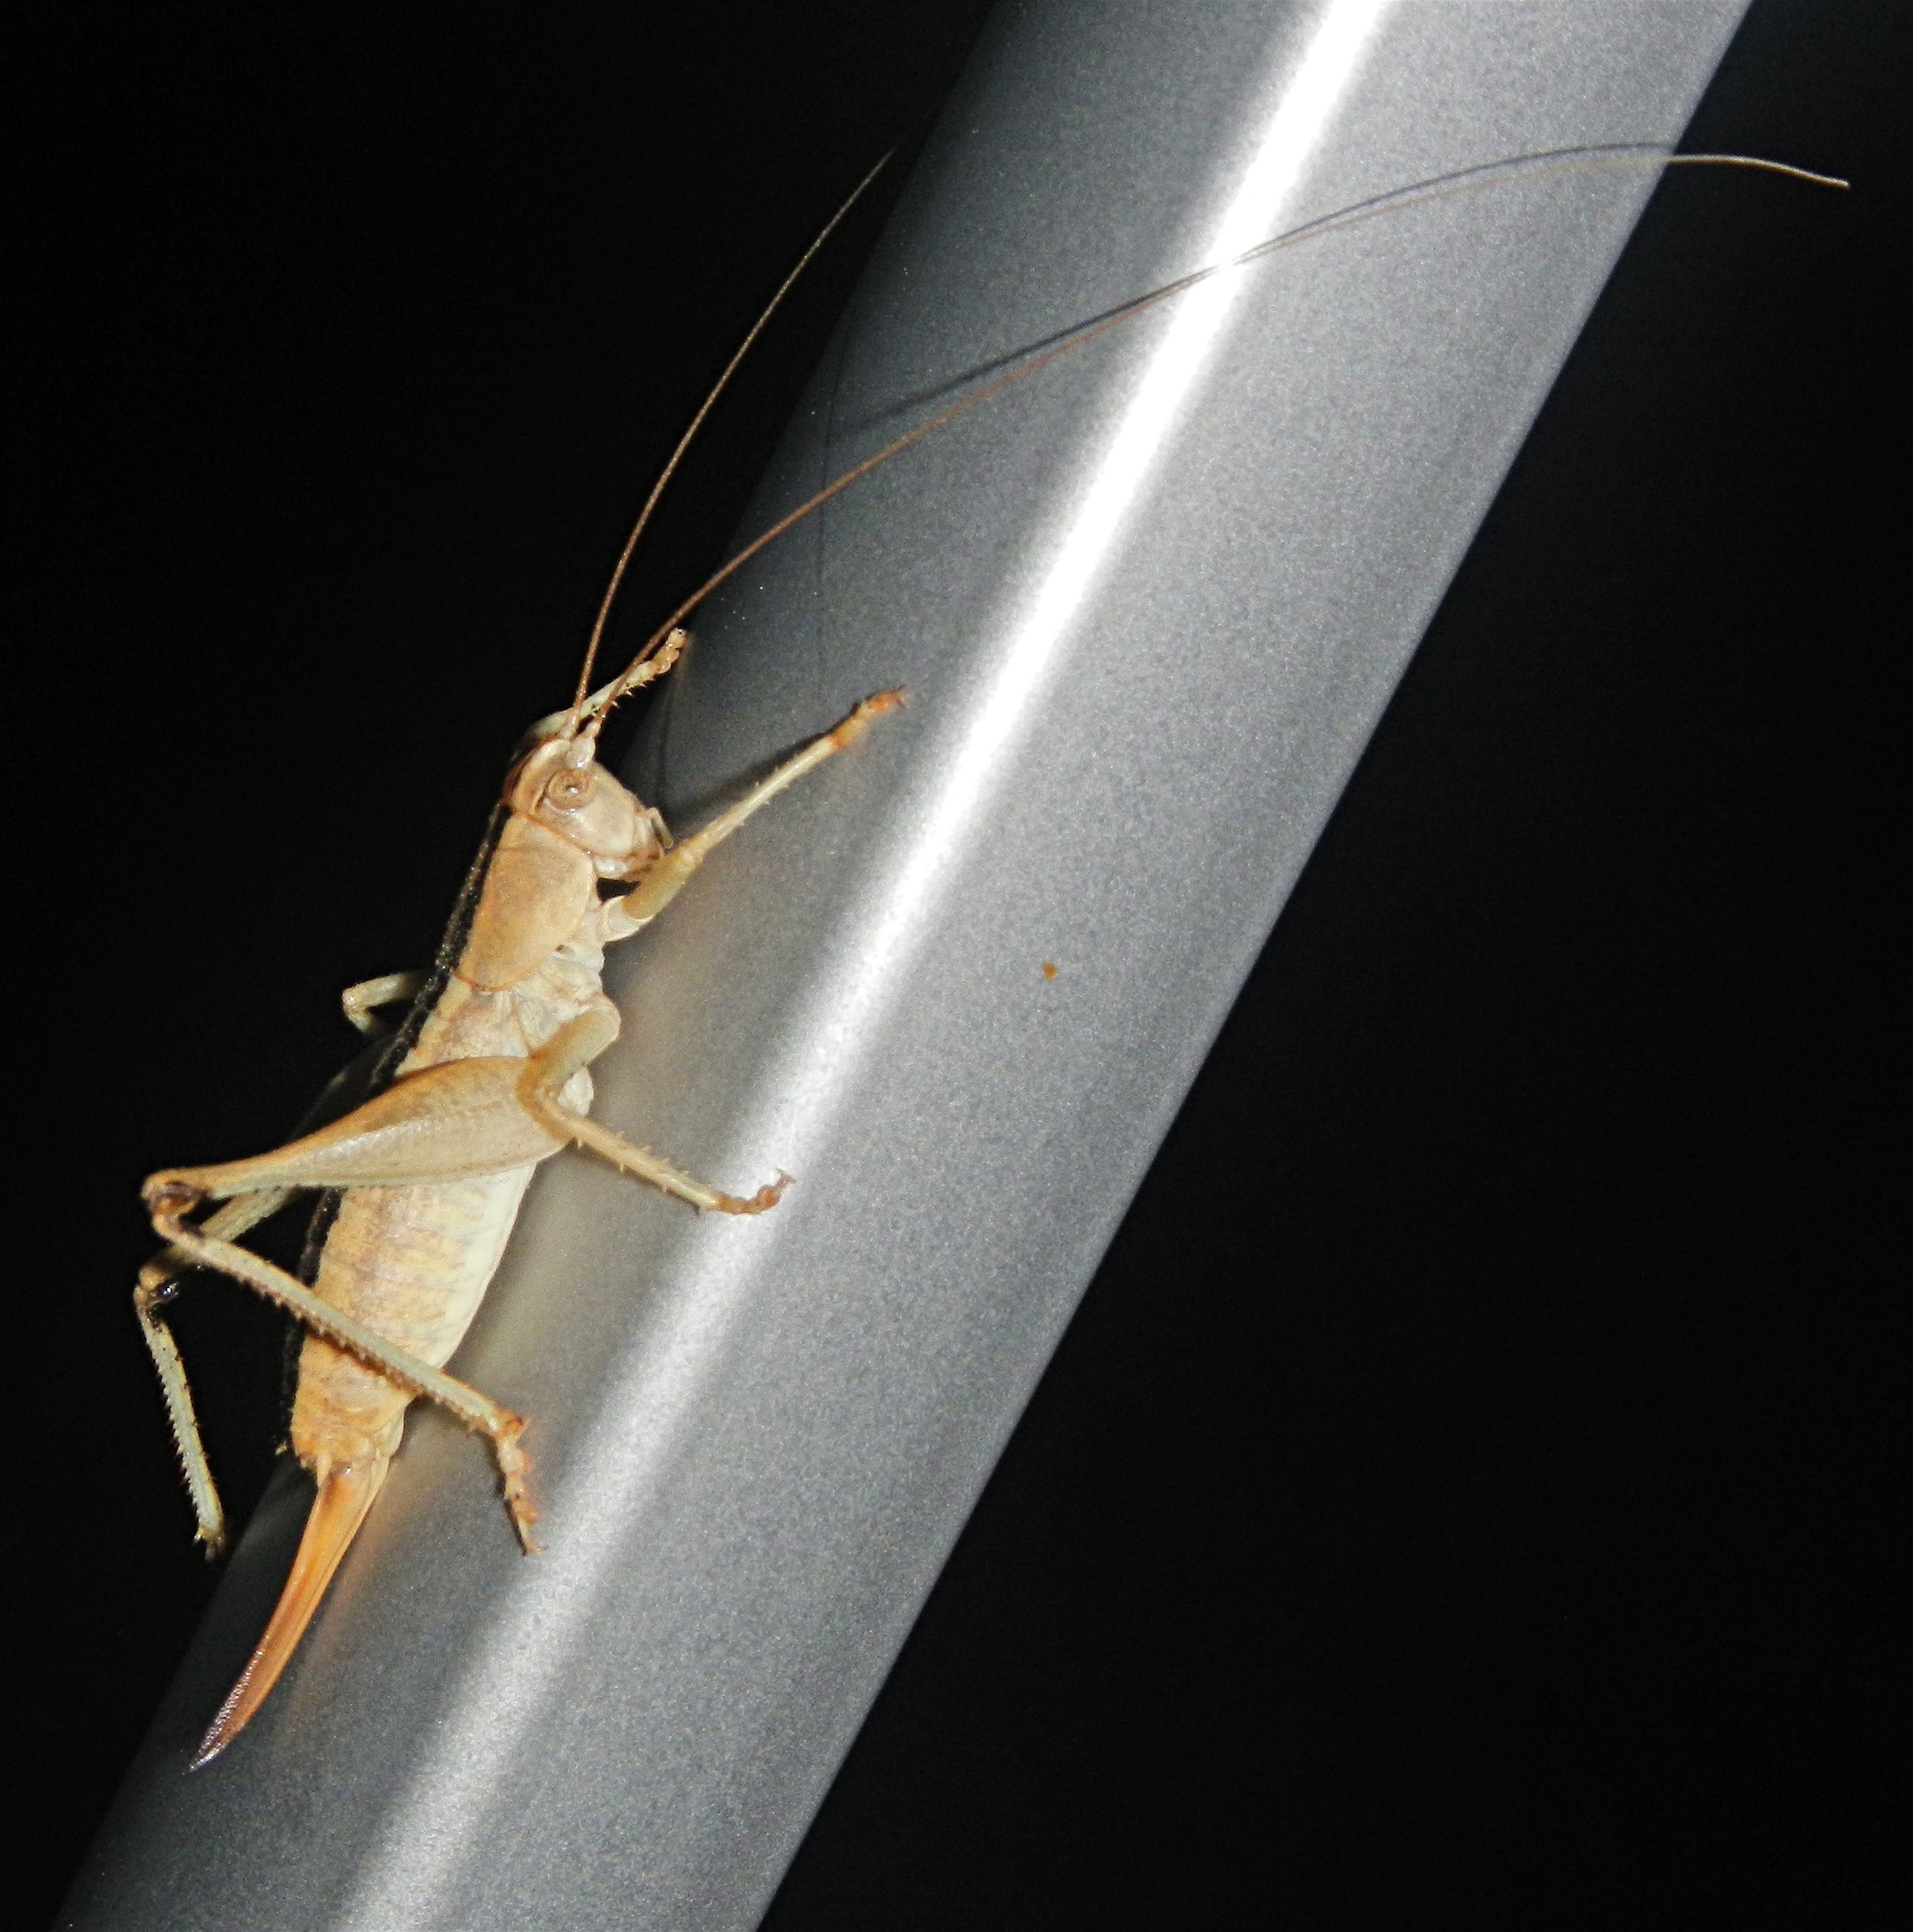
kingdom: Animalia
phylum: Arthropoda
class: Insecta
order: Orthoptera
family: Tettigoniidae
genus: Ateloplus
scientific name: Ateloplus luteus
